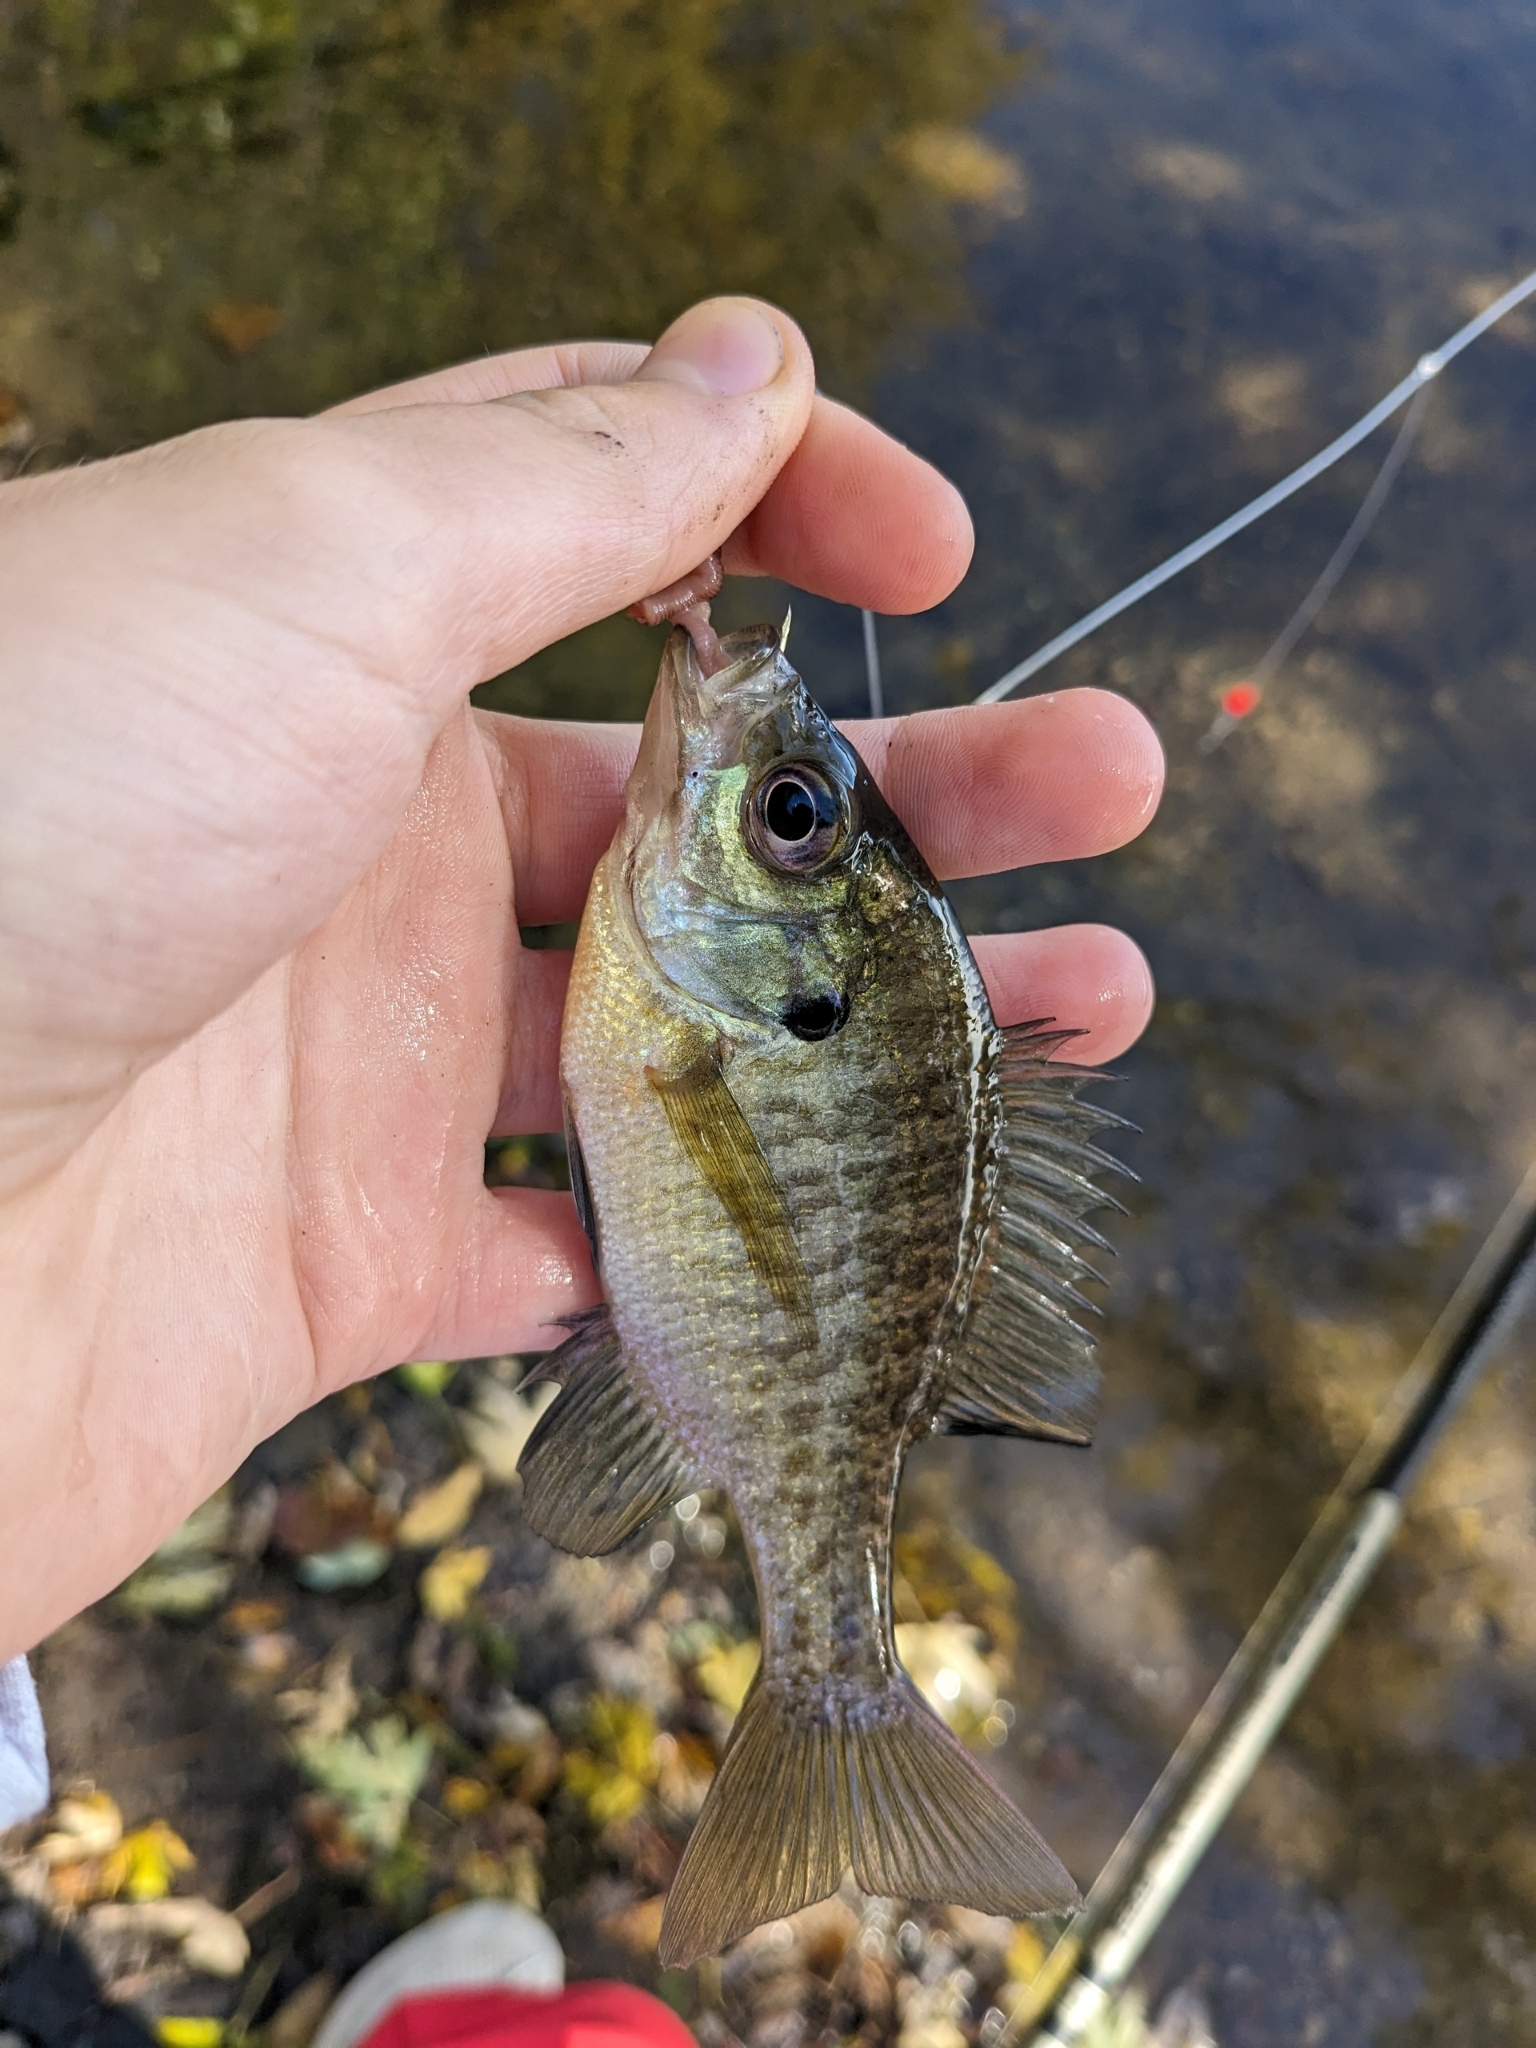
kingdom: Animalia
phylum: Chordata
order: Perciformes
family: Centrarchidae
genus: Lepomis
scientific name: Lepomis macrochirus
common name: Bluegill
